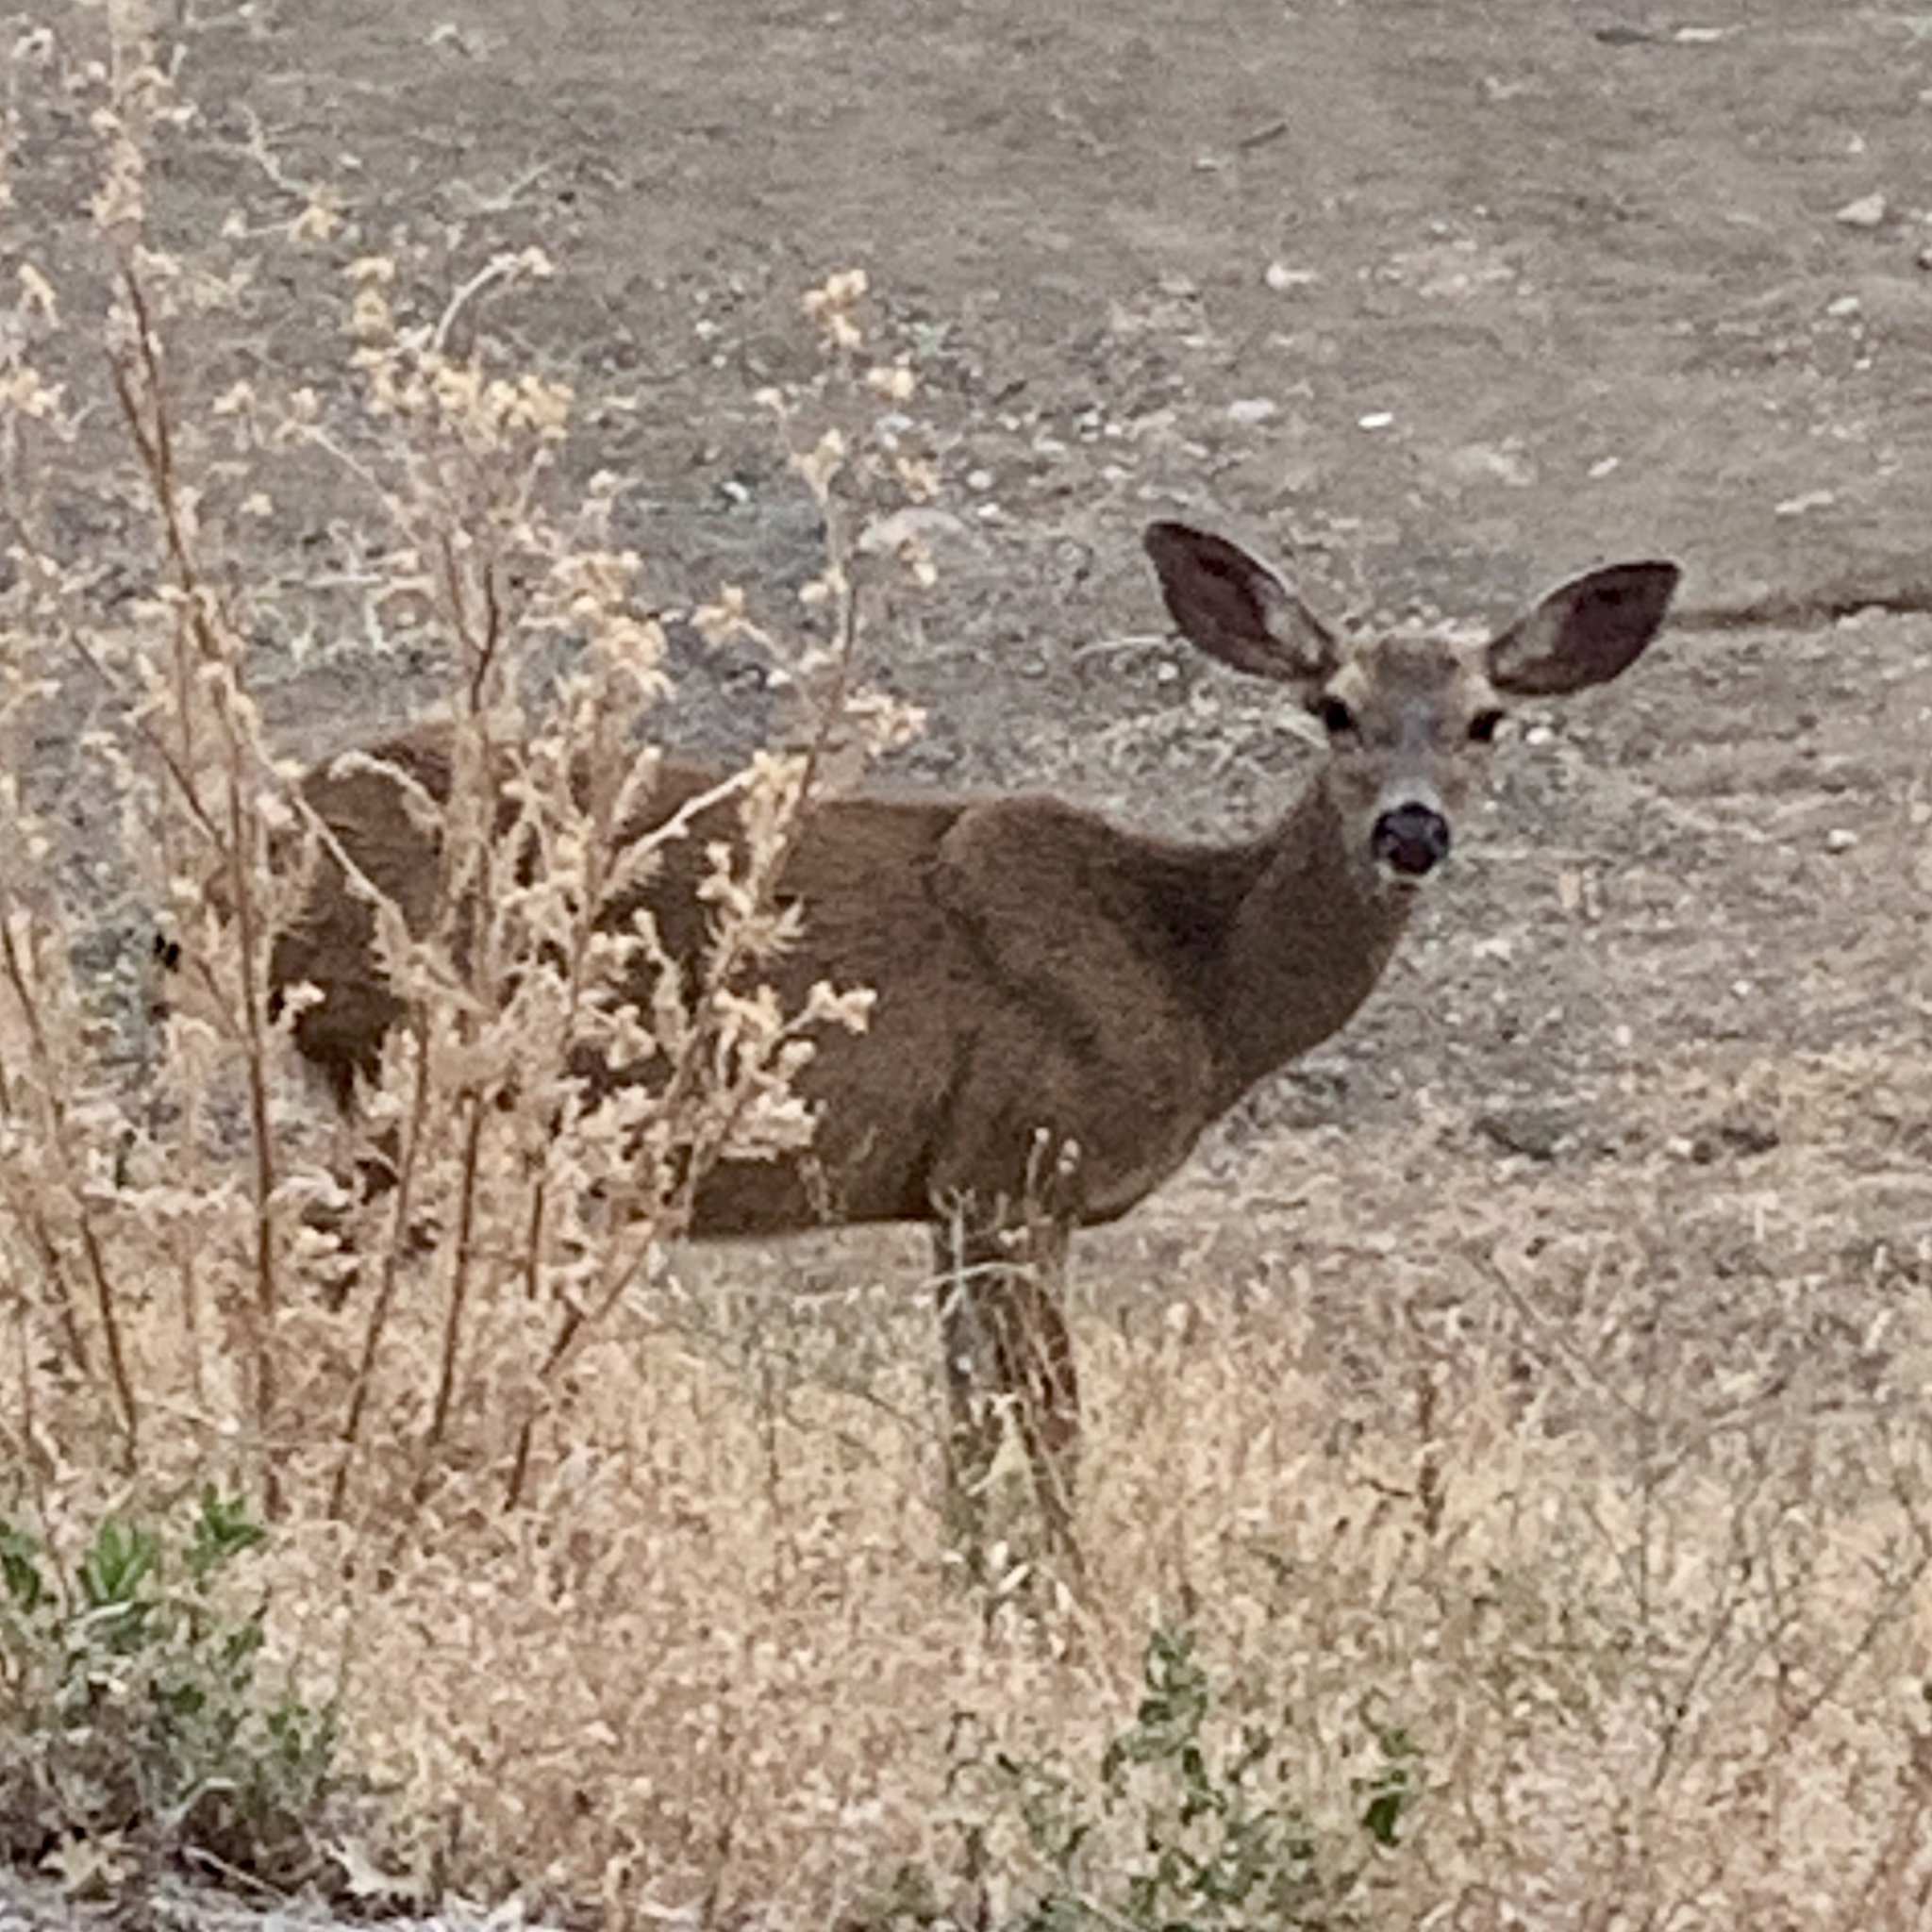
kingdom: Animalia
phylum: Chordata
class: Mammalia
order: Artiodactyla
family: Cervidae
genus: Odocoileus
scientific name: Odocoileus hemionus
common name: Mule deer
